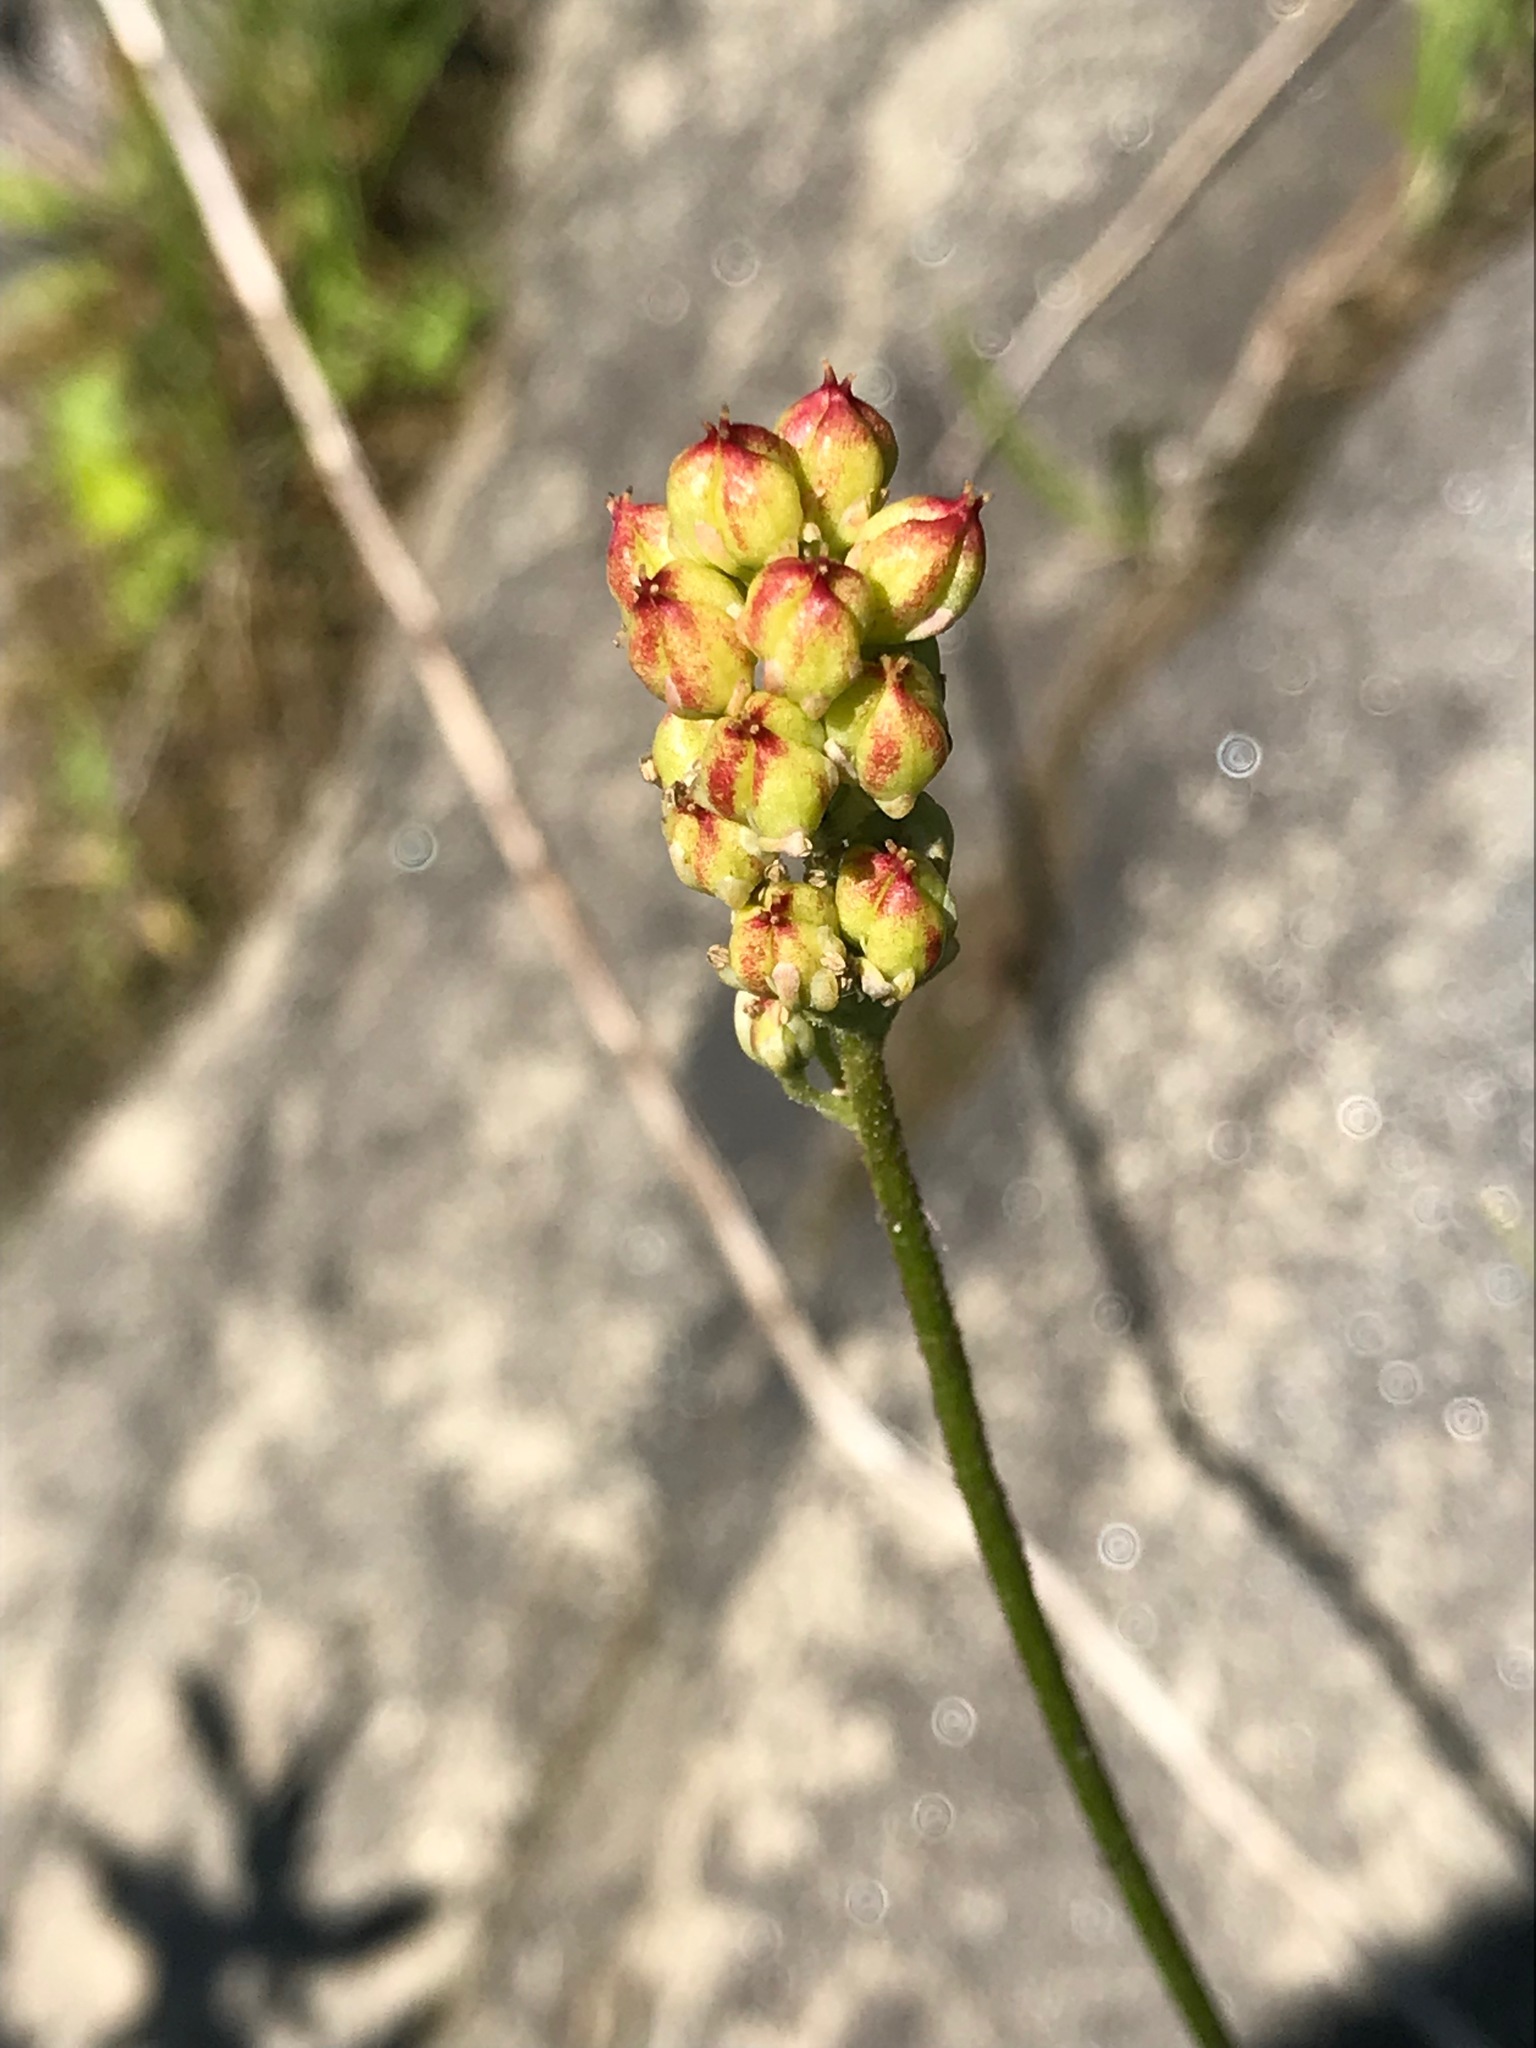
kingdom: Plantae
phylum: Tracheophyta
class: Liliopsida
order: Alismatales
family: Tofieldiaceae
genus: Triantha
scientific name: Triantha glutinosa
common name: Glutinous tofieldia
